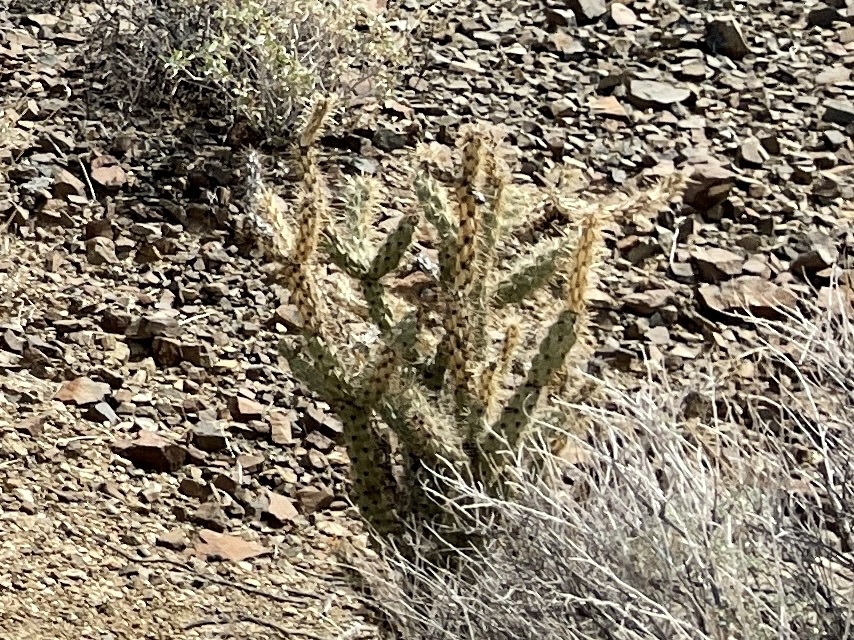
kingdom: Plantae
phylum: Tracheophyta
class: Magnoliopsida
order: Caryophyllales
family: Cactaceae
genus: Cylindropuntia
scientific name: Cylindropuntia acanthocarpa
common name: Buckhorn cholla
